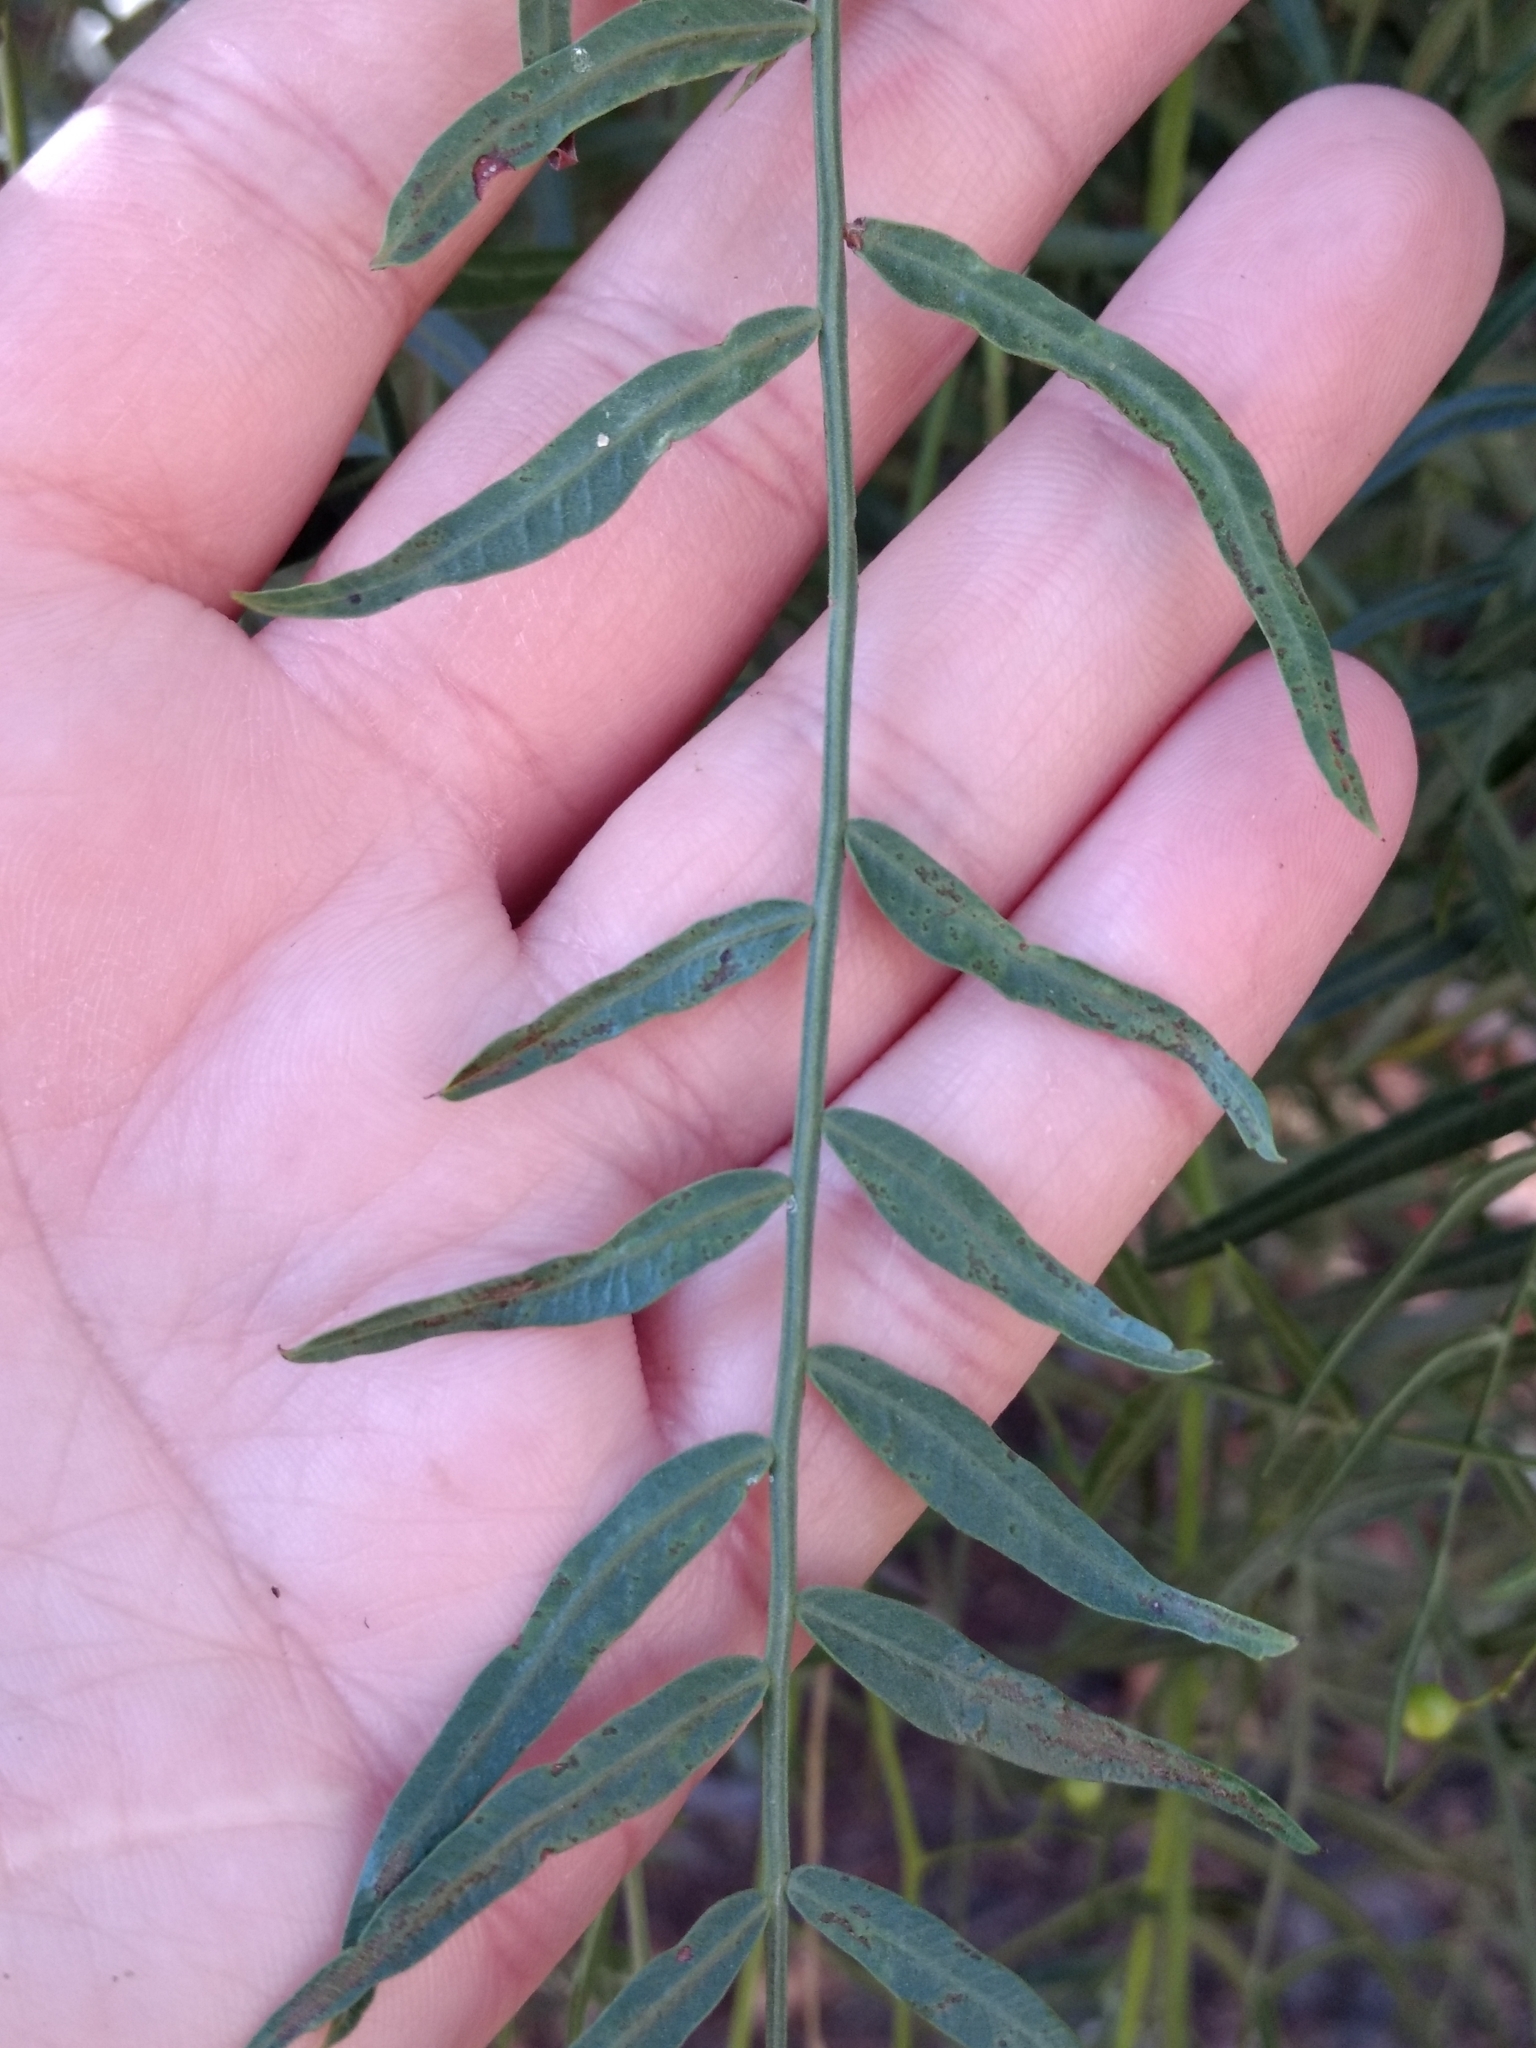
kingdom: Plantae
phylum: Tracheophyta
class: Magnoliopsida
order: Sapindales
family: Anacardiaceae
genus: Schinus
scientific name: Schinus molle
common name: Peruvian peppertree
